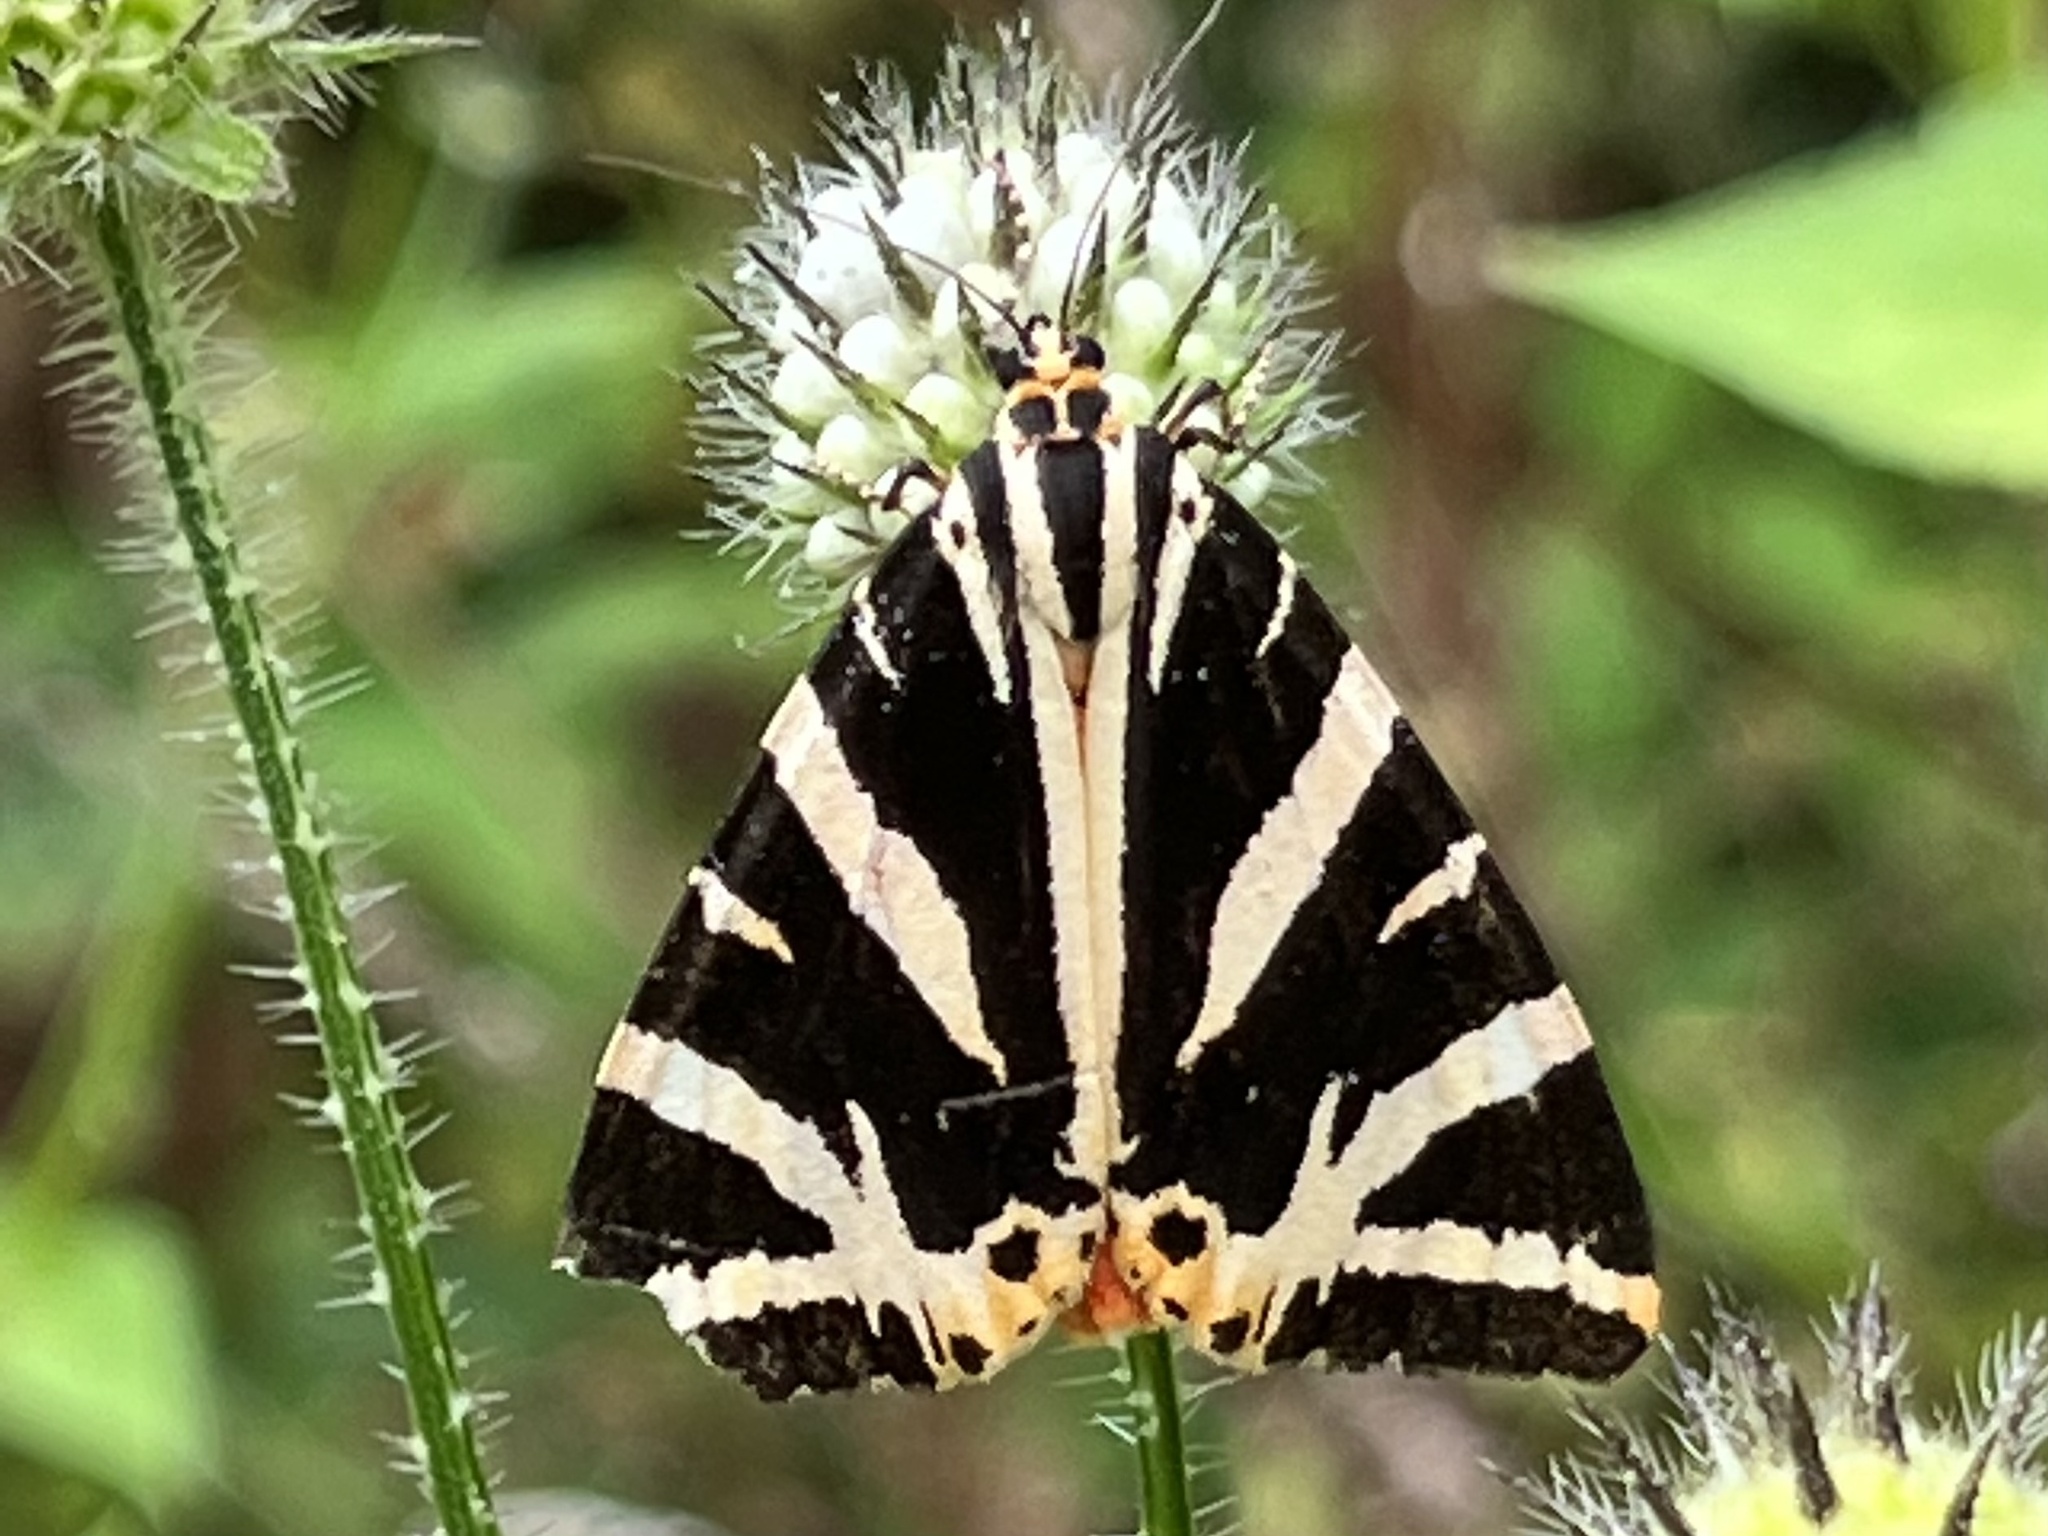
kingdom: Animalia
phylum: Arthropoda
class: Insecta
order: Lepidoptera
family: Erebidae
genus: Euplagia
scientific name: Euplagia quadripunctaria
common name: Jersey tiger
